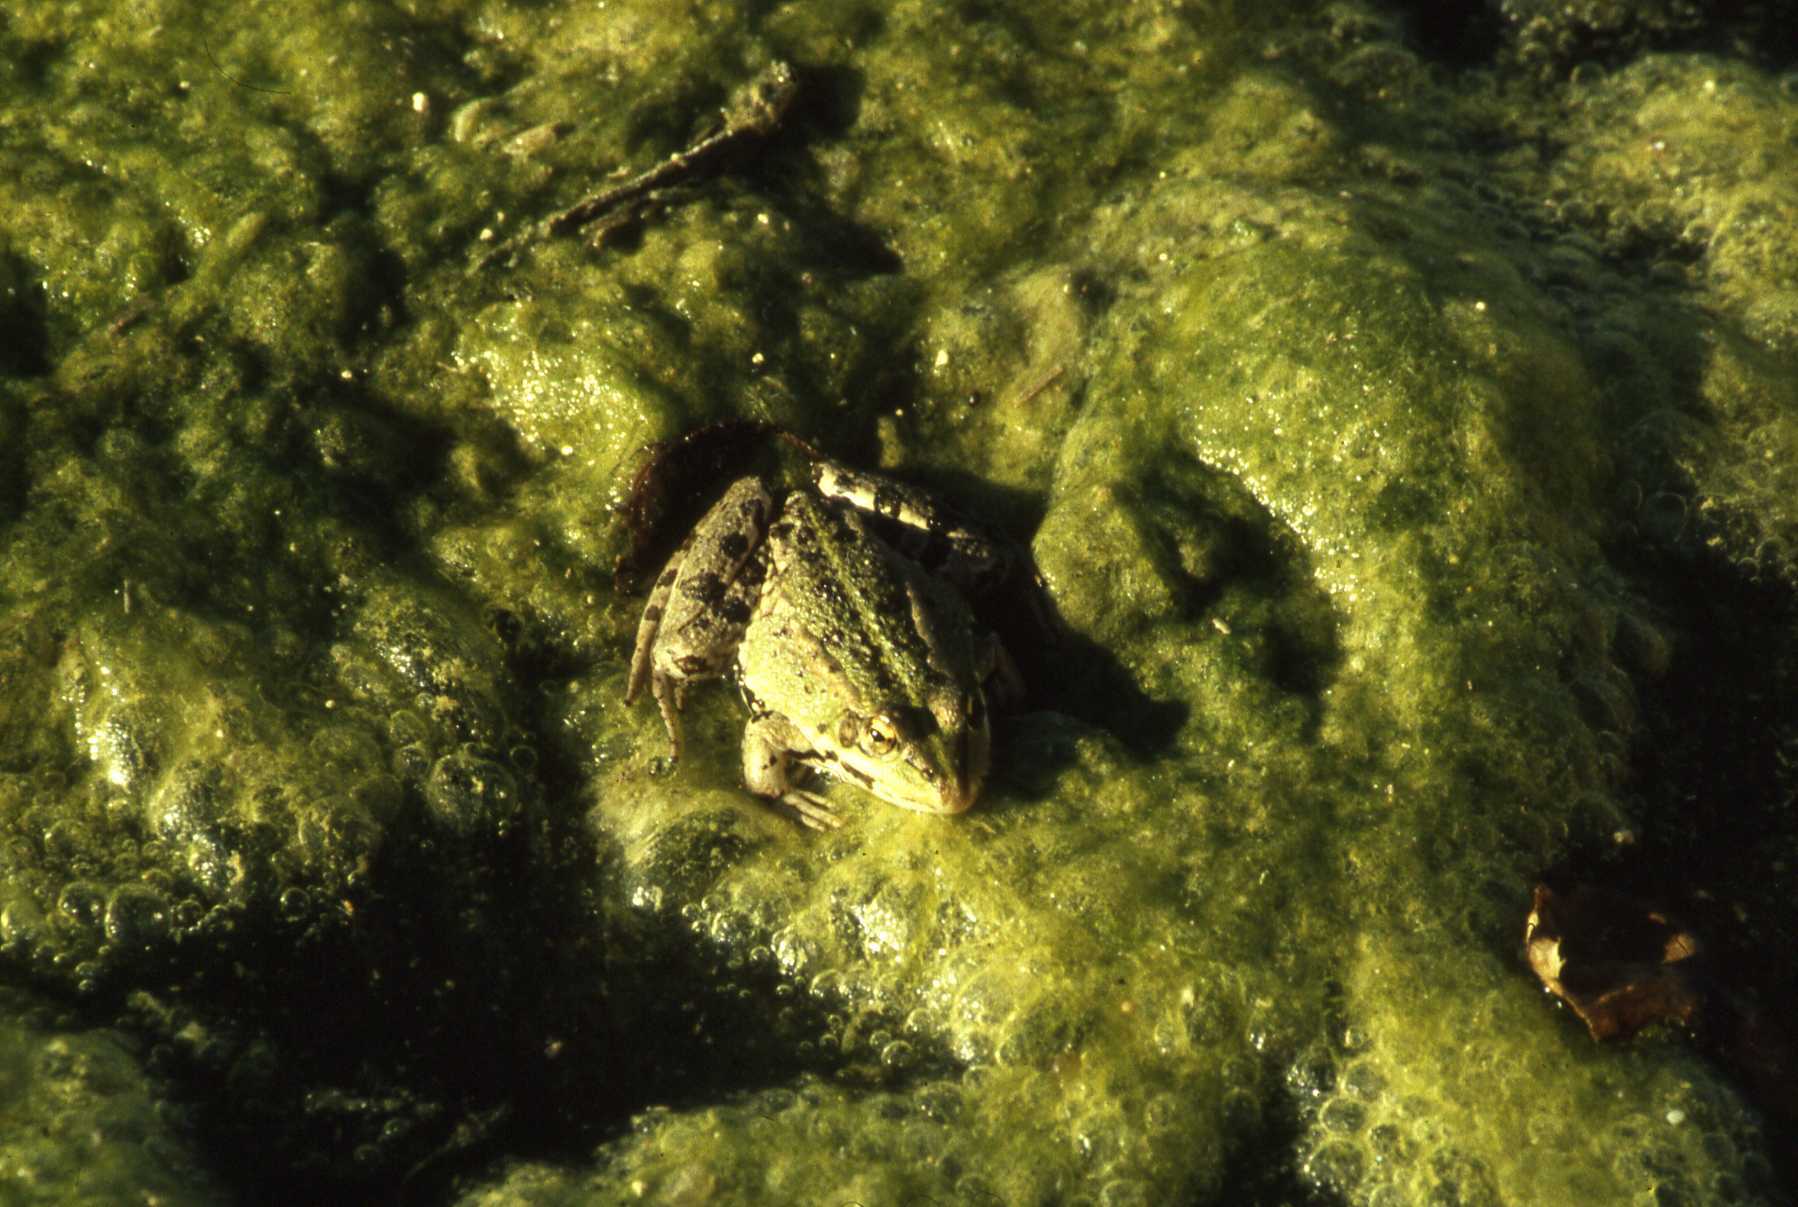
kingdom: Animalia
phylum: Chordata
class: Amphibia
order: Anura
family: Ranidae
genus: Pelophylax
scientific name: Pelophylax perezi
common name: Perez's frog
